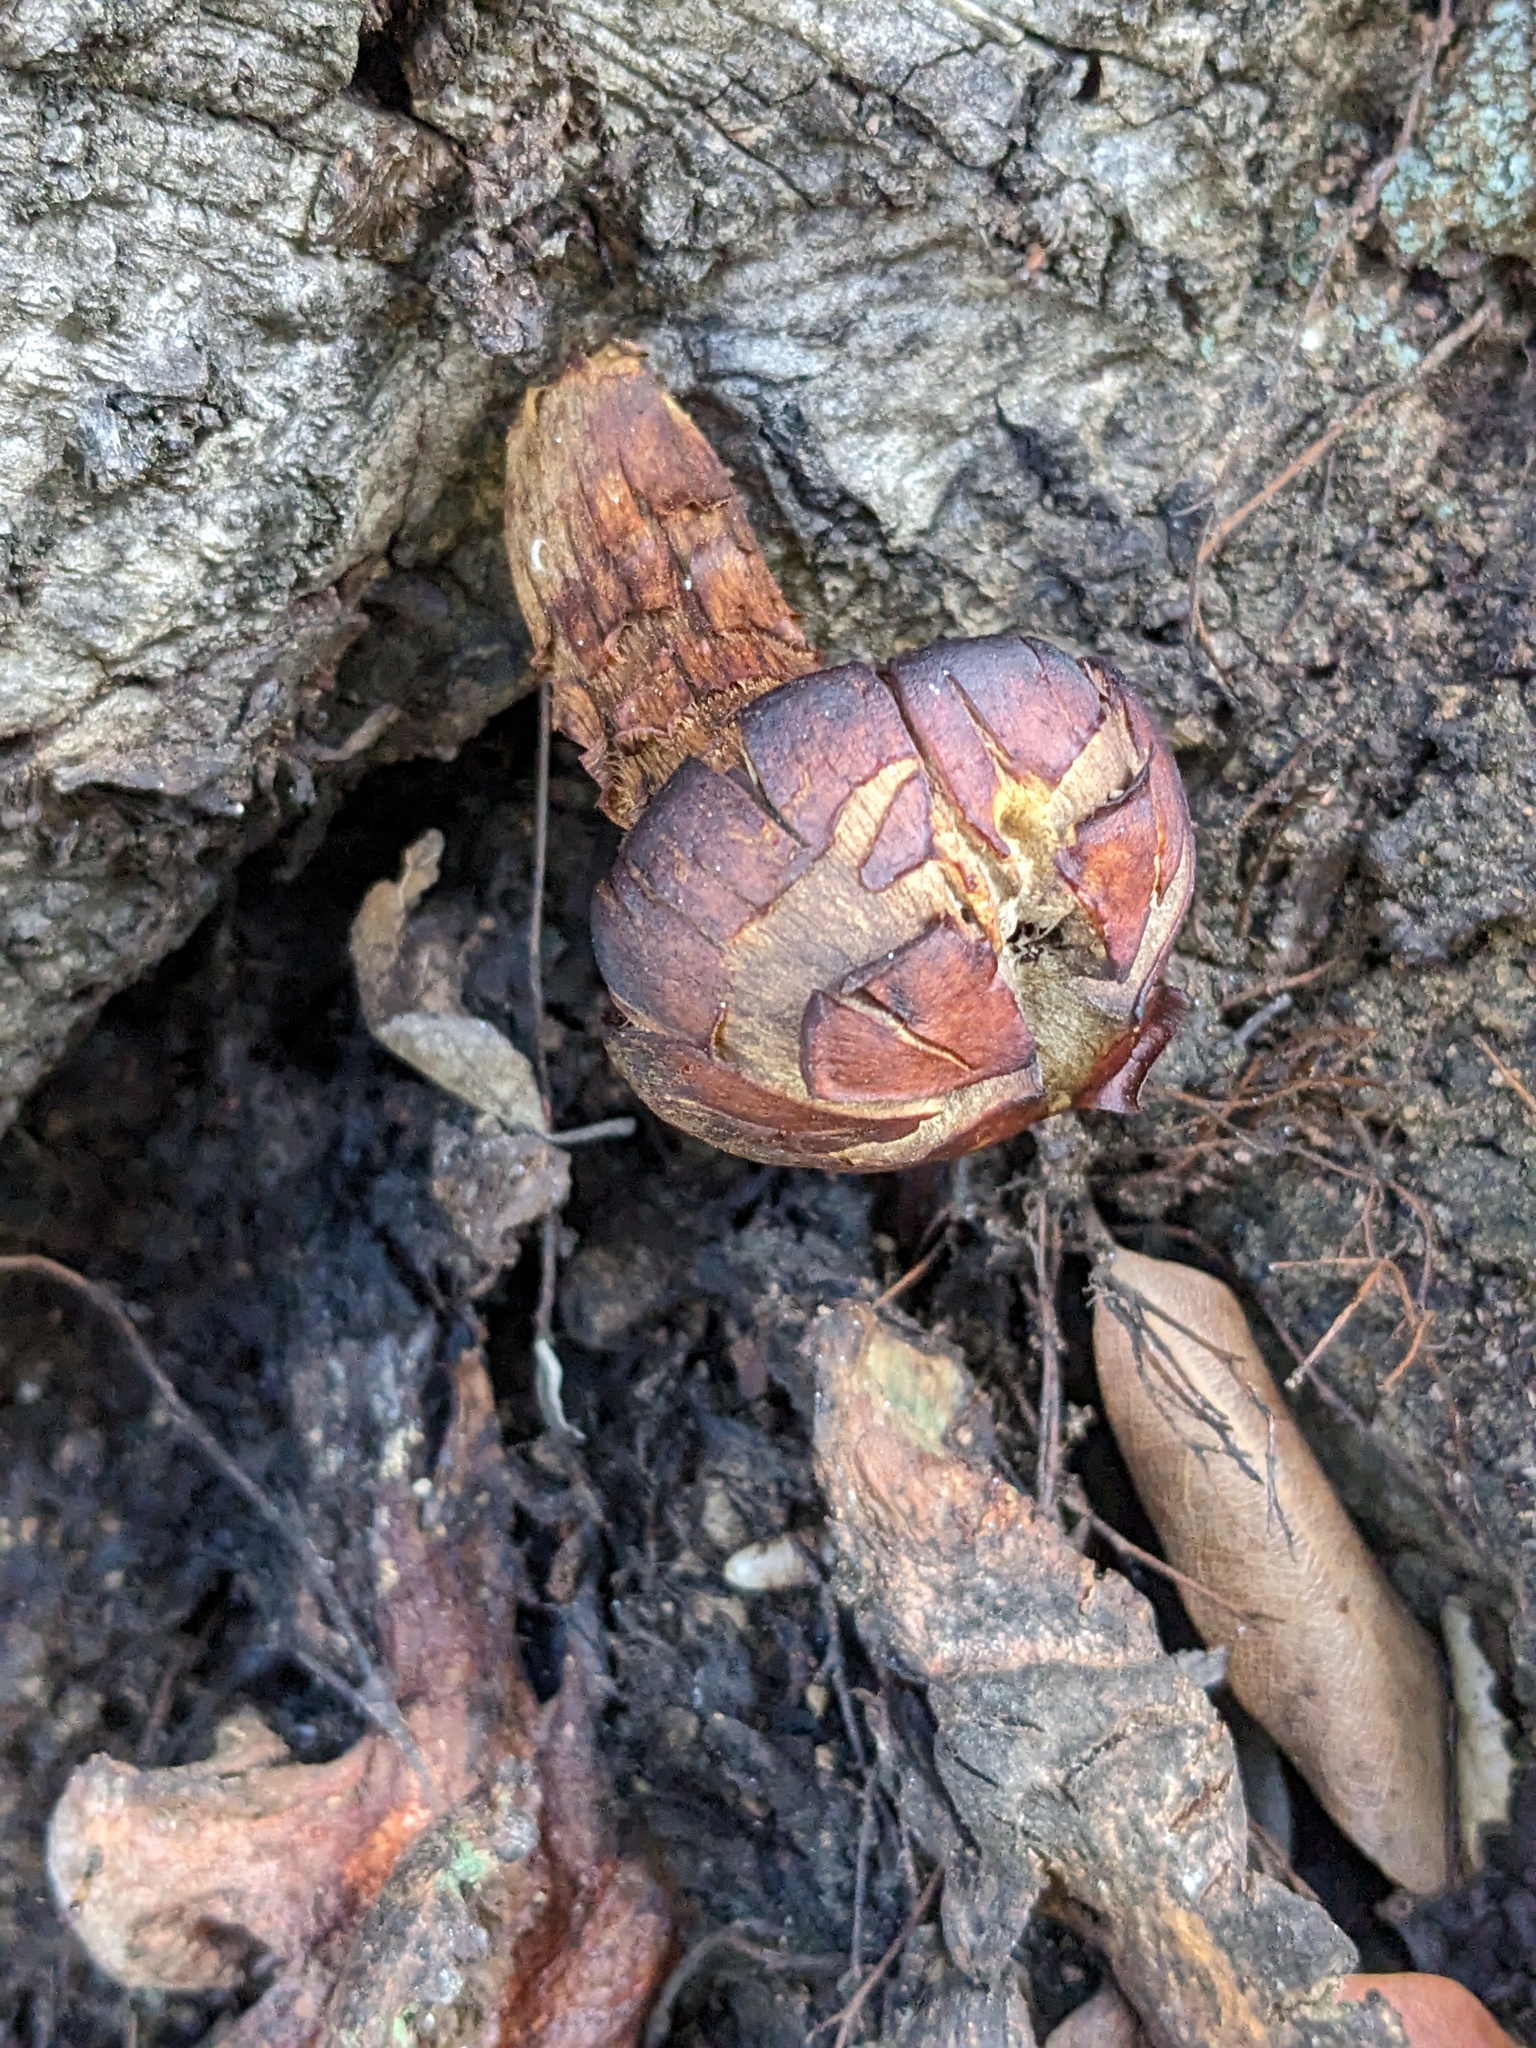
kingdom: Fungi
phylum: Basidiomycota
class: Agaricomycetes
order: Agaricales
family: Omphalotaceae
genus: Omphalotus
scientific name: Omphalotus olivascens
